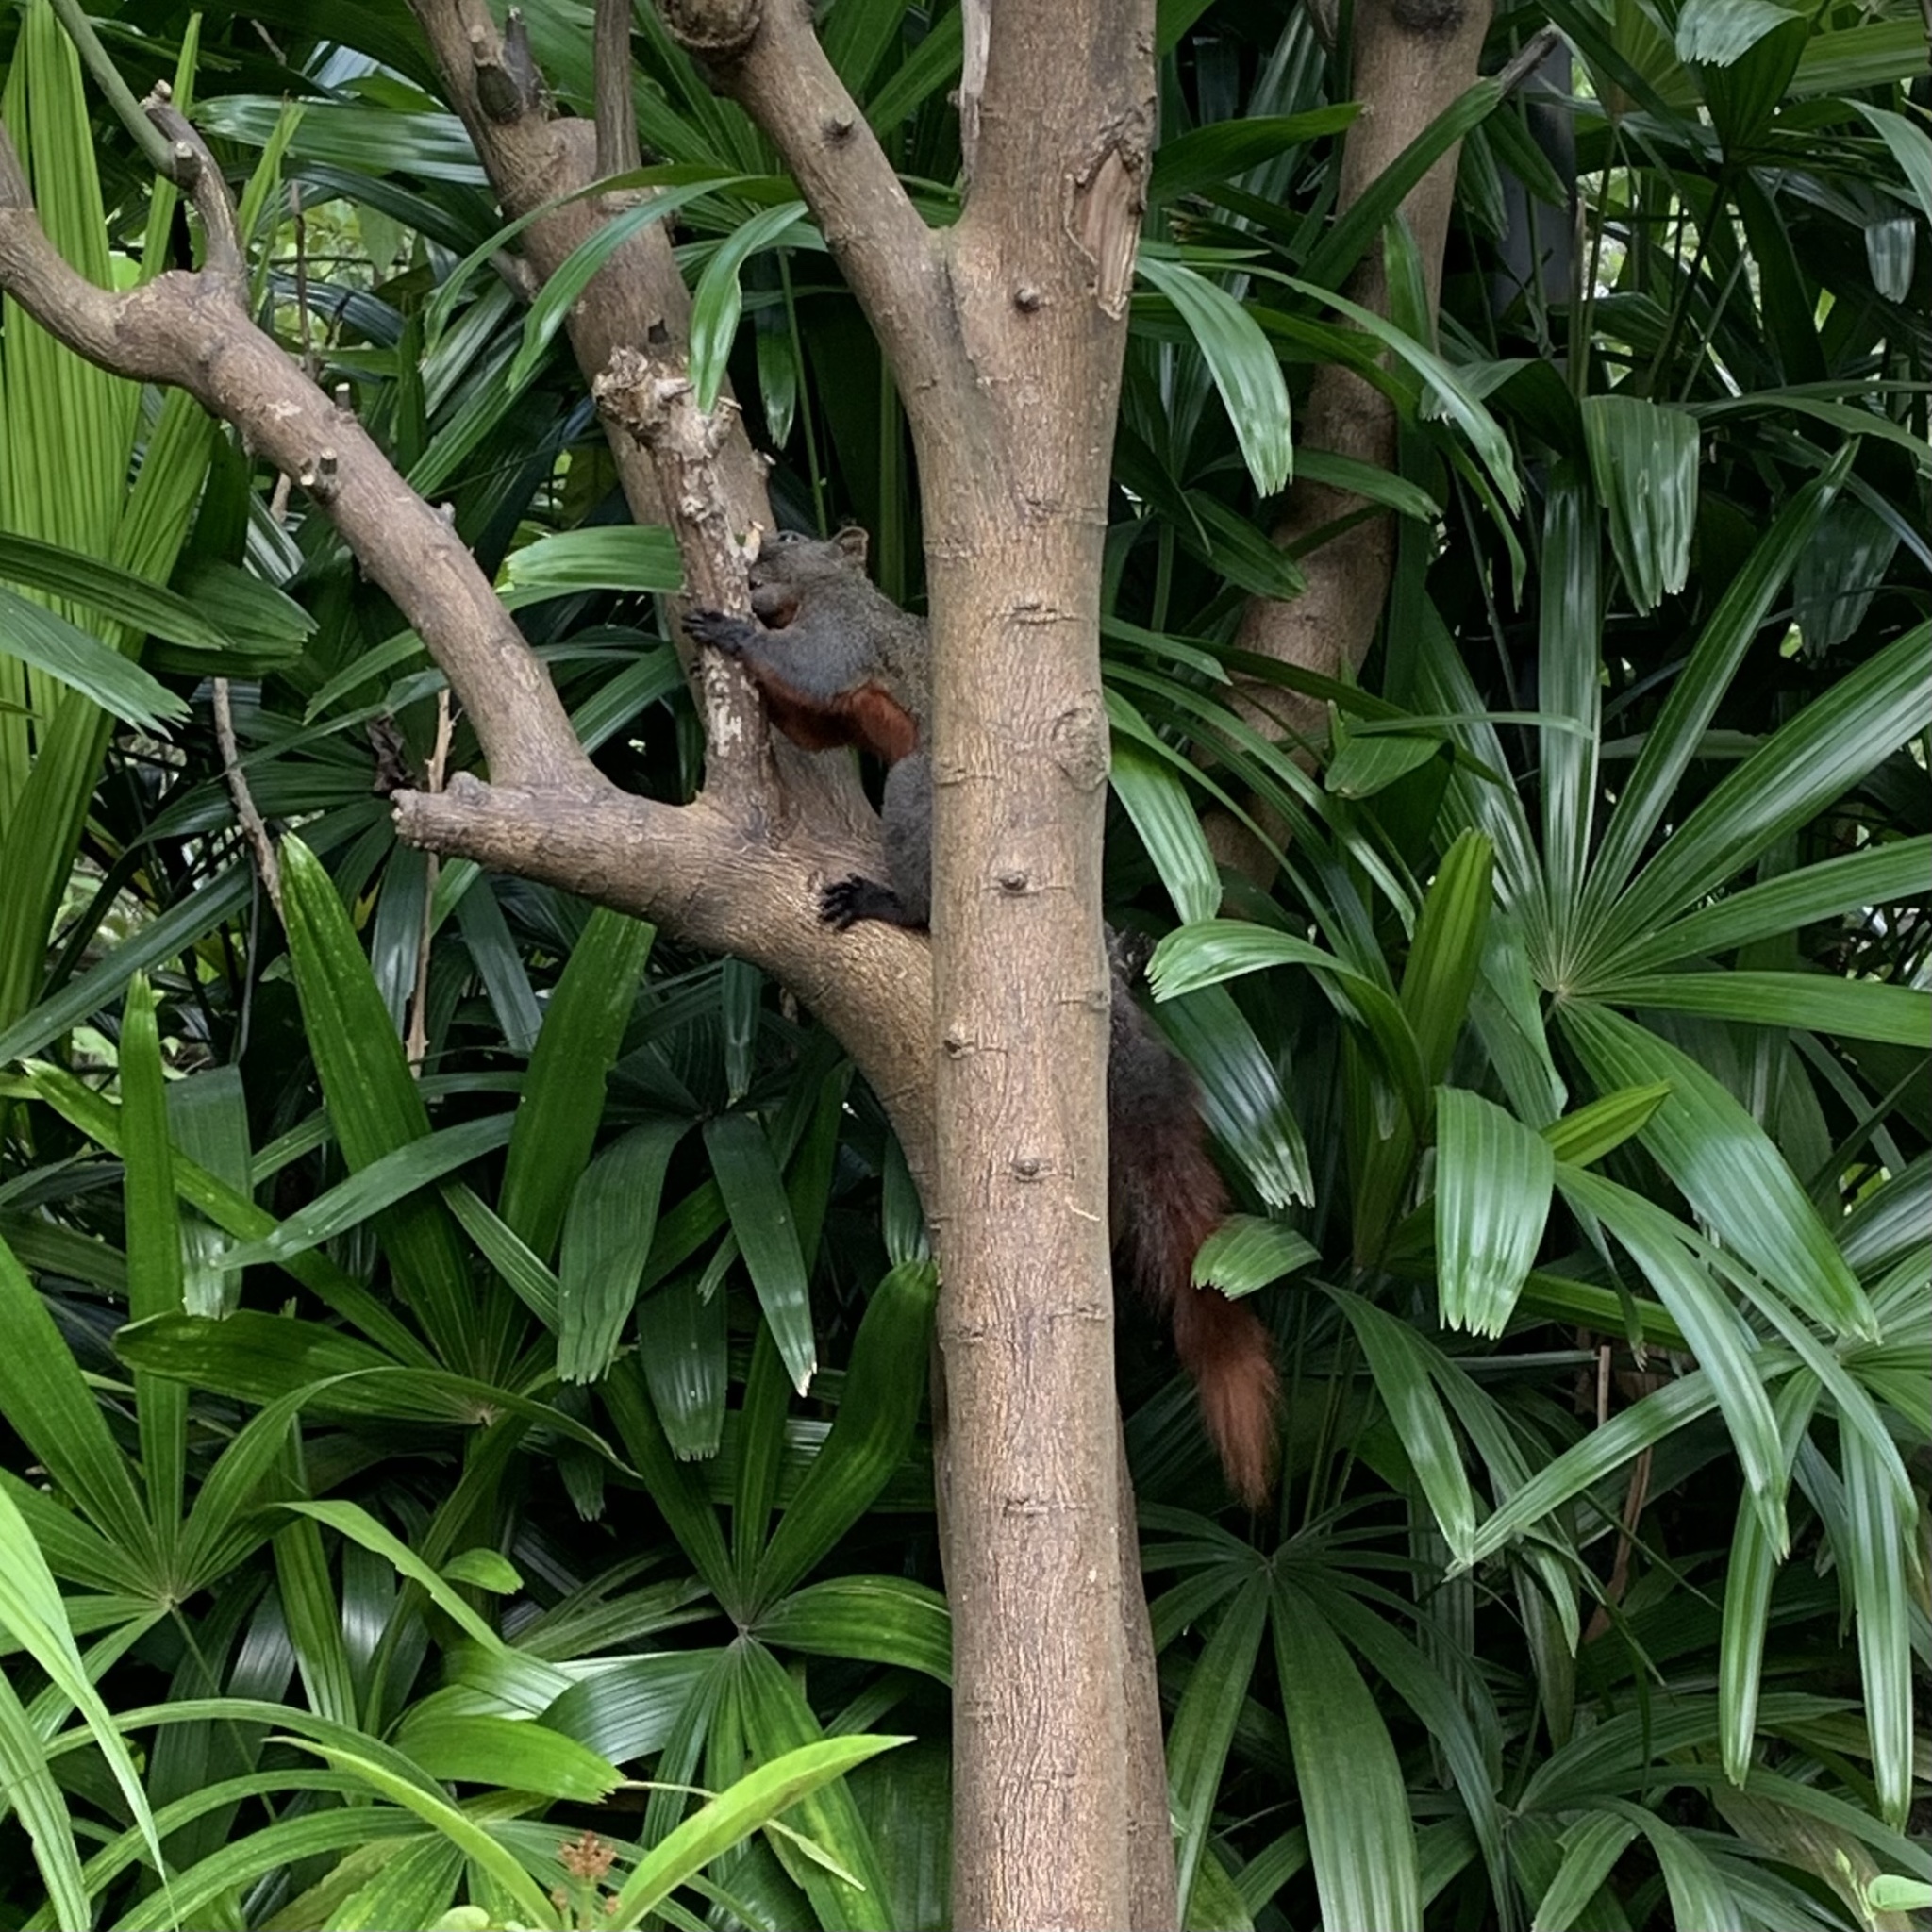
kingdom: Animalia
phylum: Chordata
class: Mammalia
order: Rodentia
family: Sciuridae
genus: Callosciurus
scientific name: Callosciurus erythraeus
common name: Pallas's squirrel
